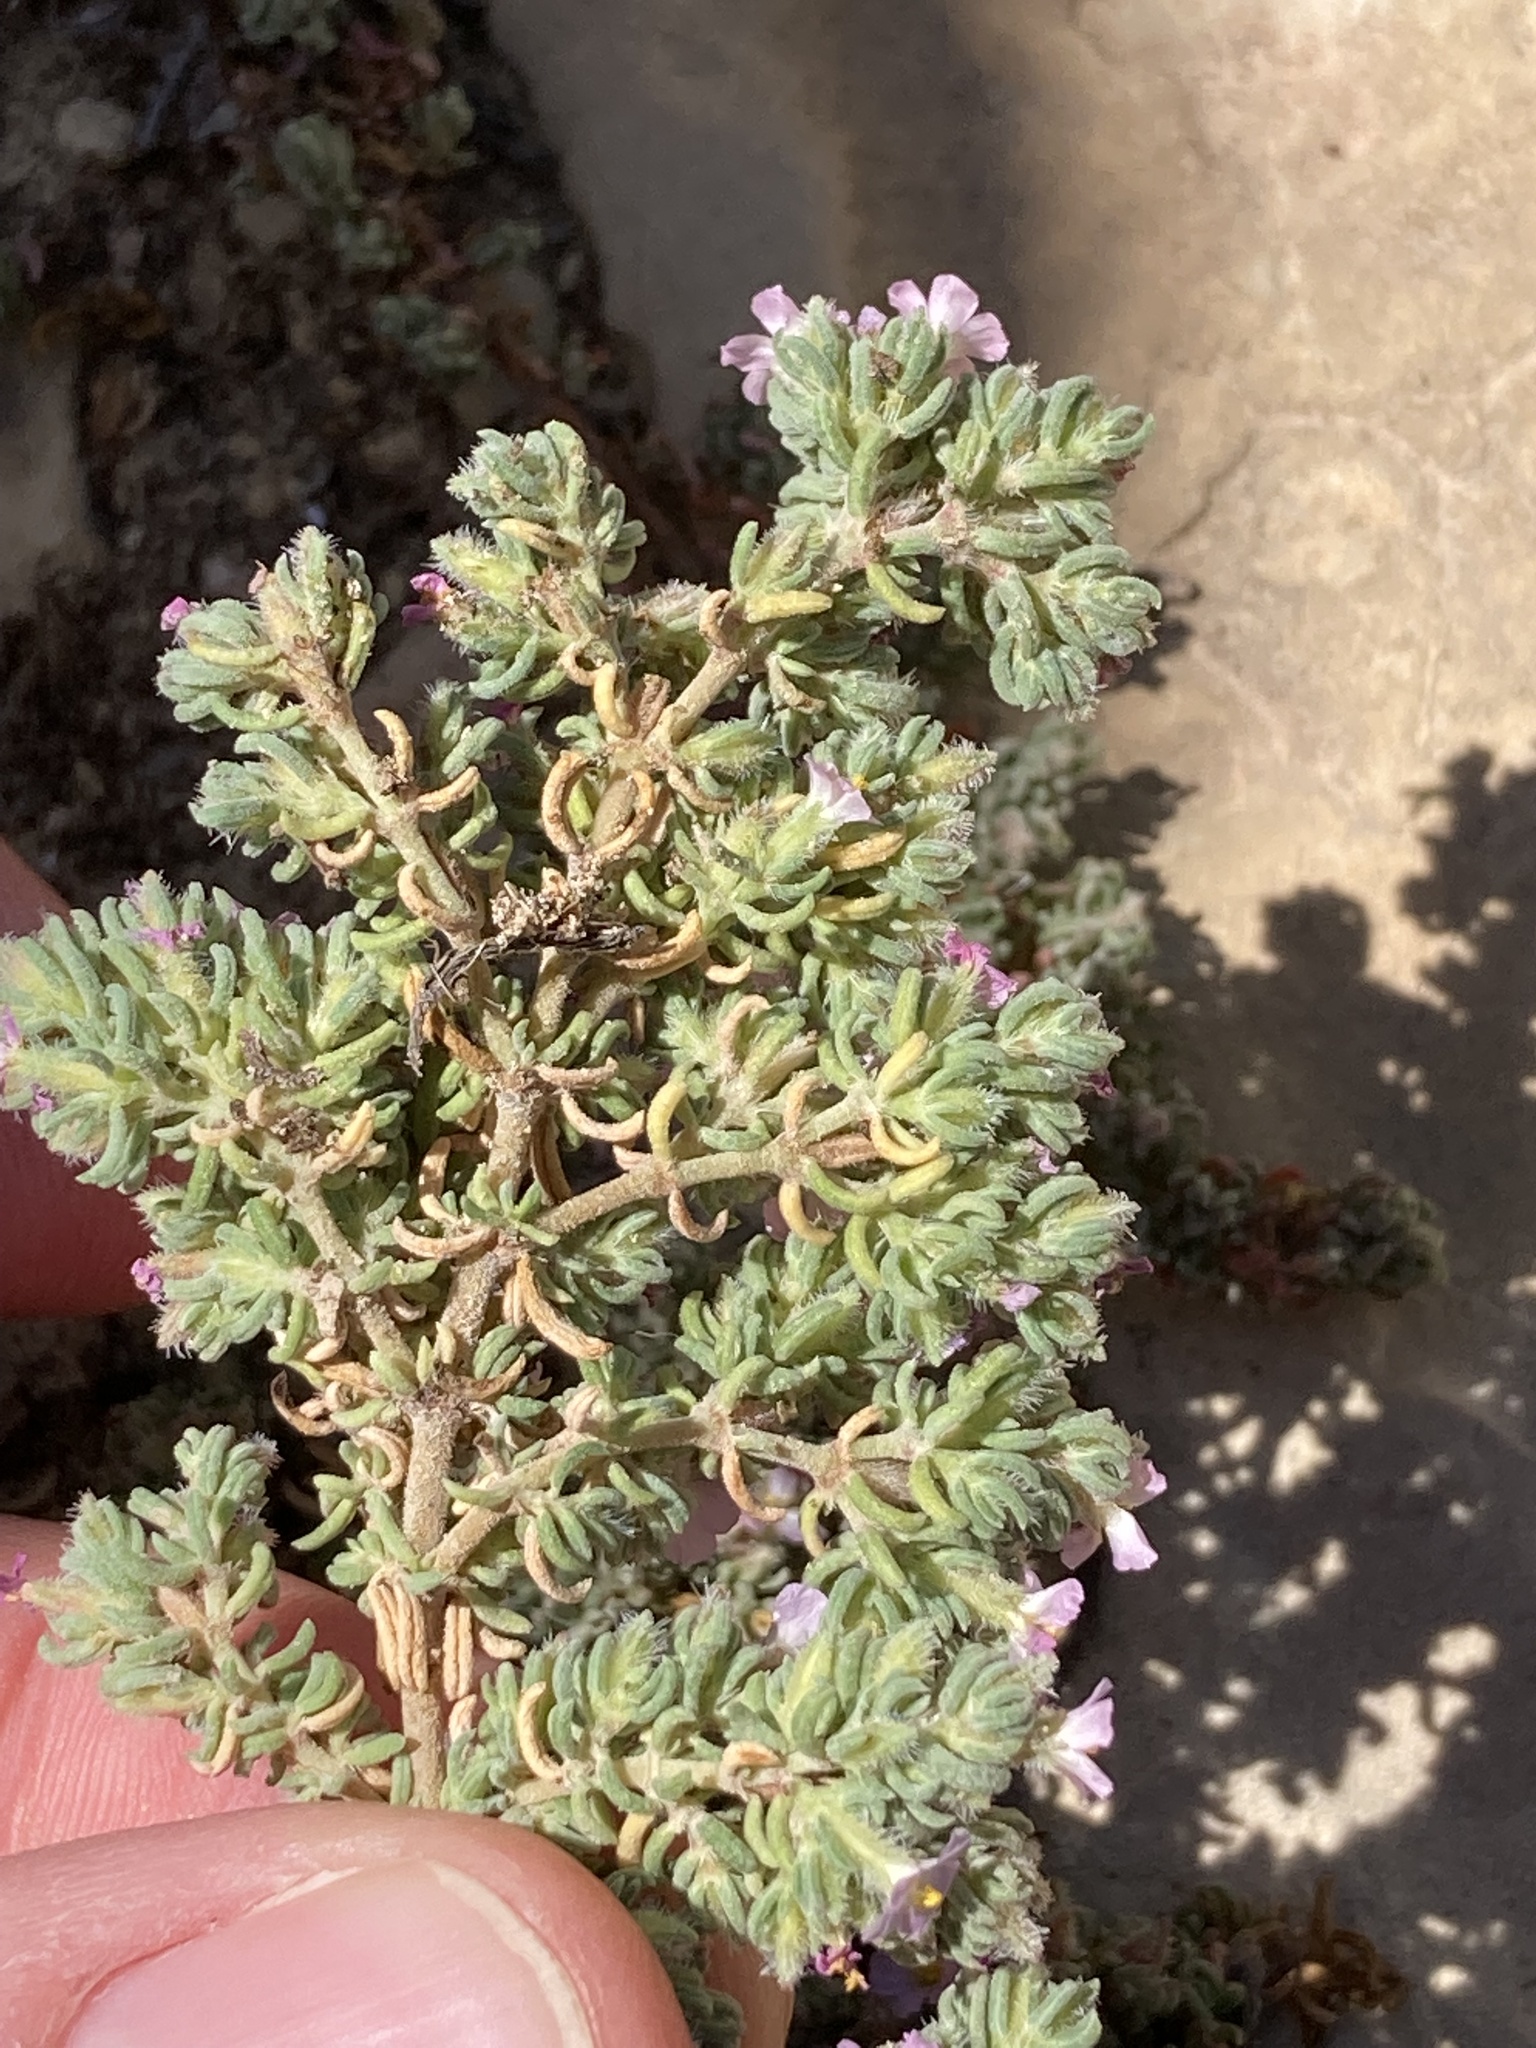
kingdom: Plantae
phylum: Tracheophyta
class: Magnoliopsida
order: Caryophyllales
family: Frankeniaceae
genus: Frankenia
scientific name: Frankenia hirsuta
